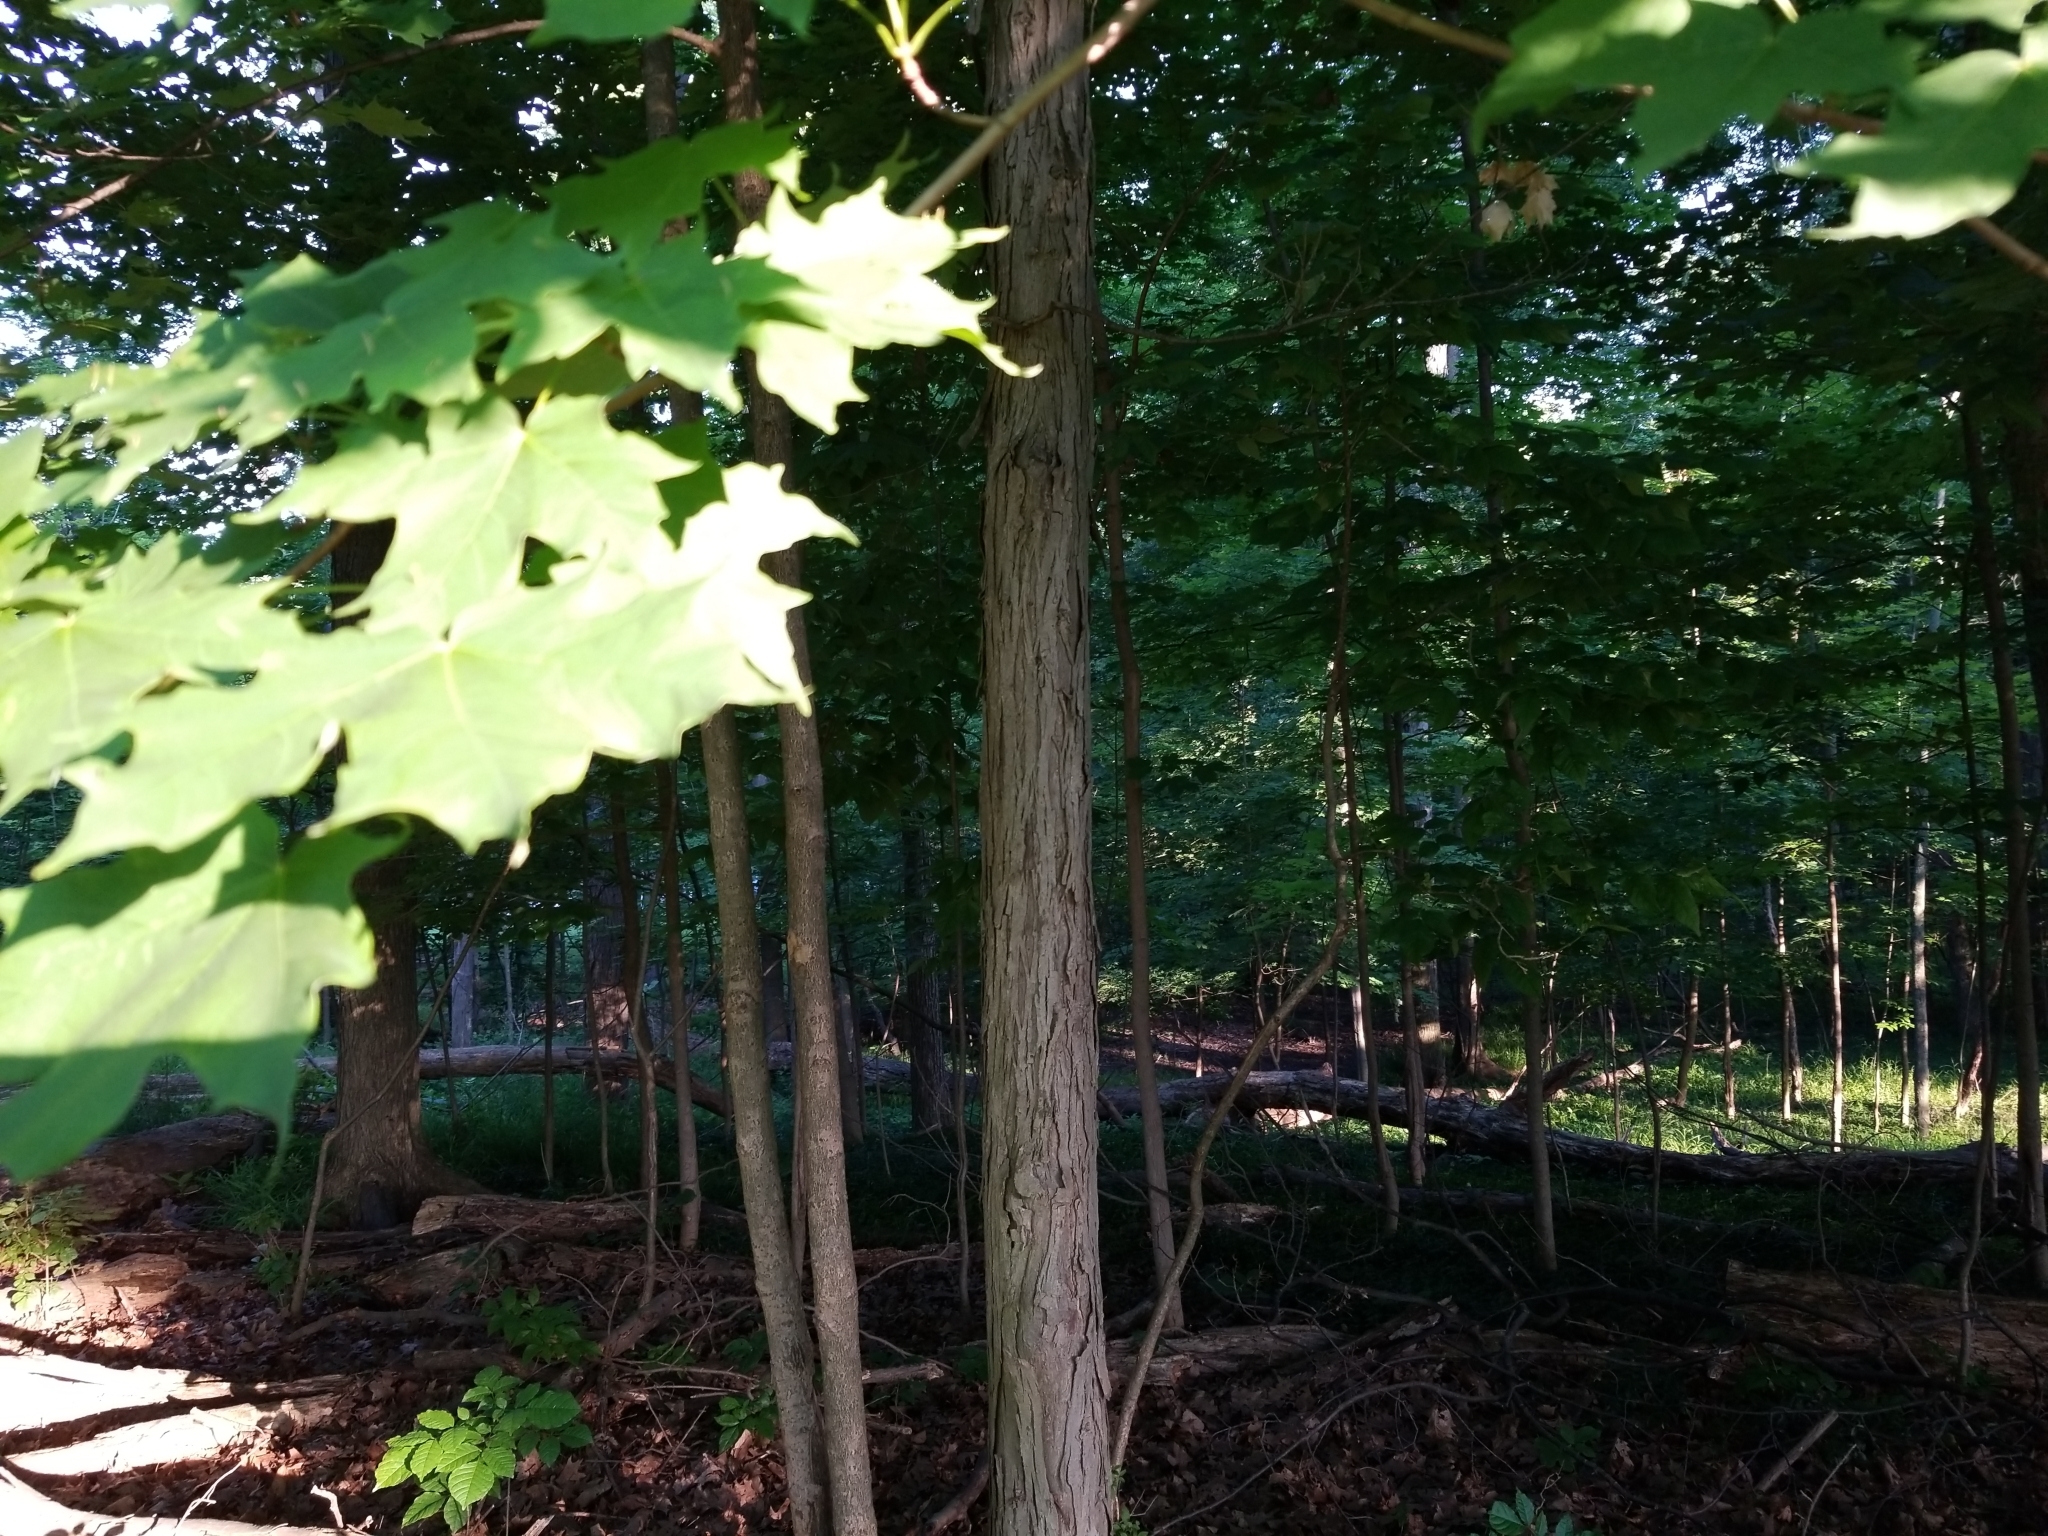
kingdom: Plantae
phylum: Tracheophyta
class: Magnoliopsida
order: Sapindales
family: Sapindaceae
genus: Acer
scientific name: Acer saccharum
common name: Sugar maple
